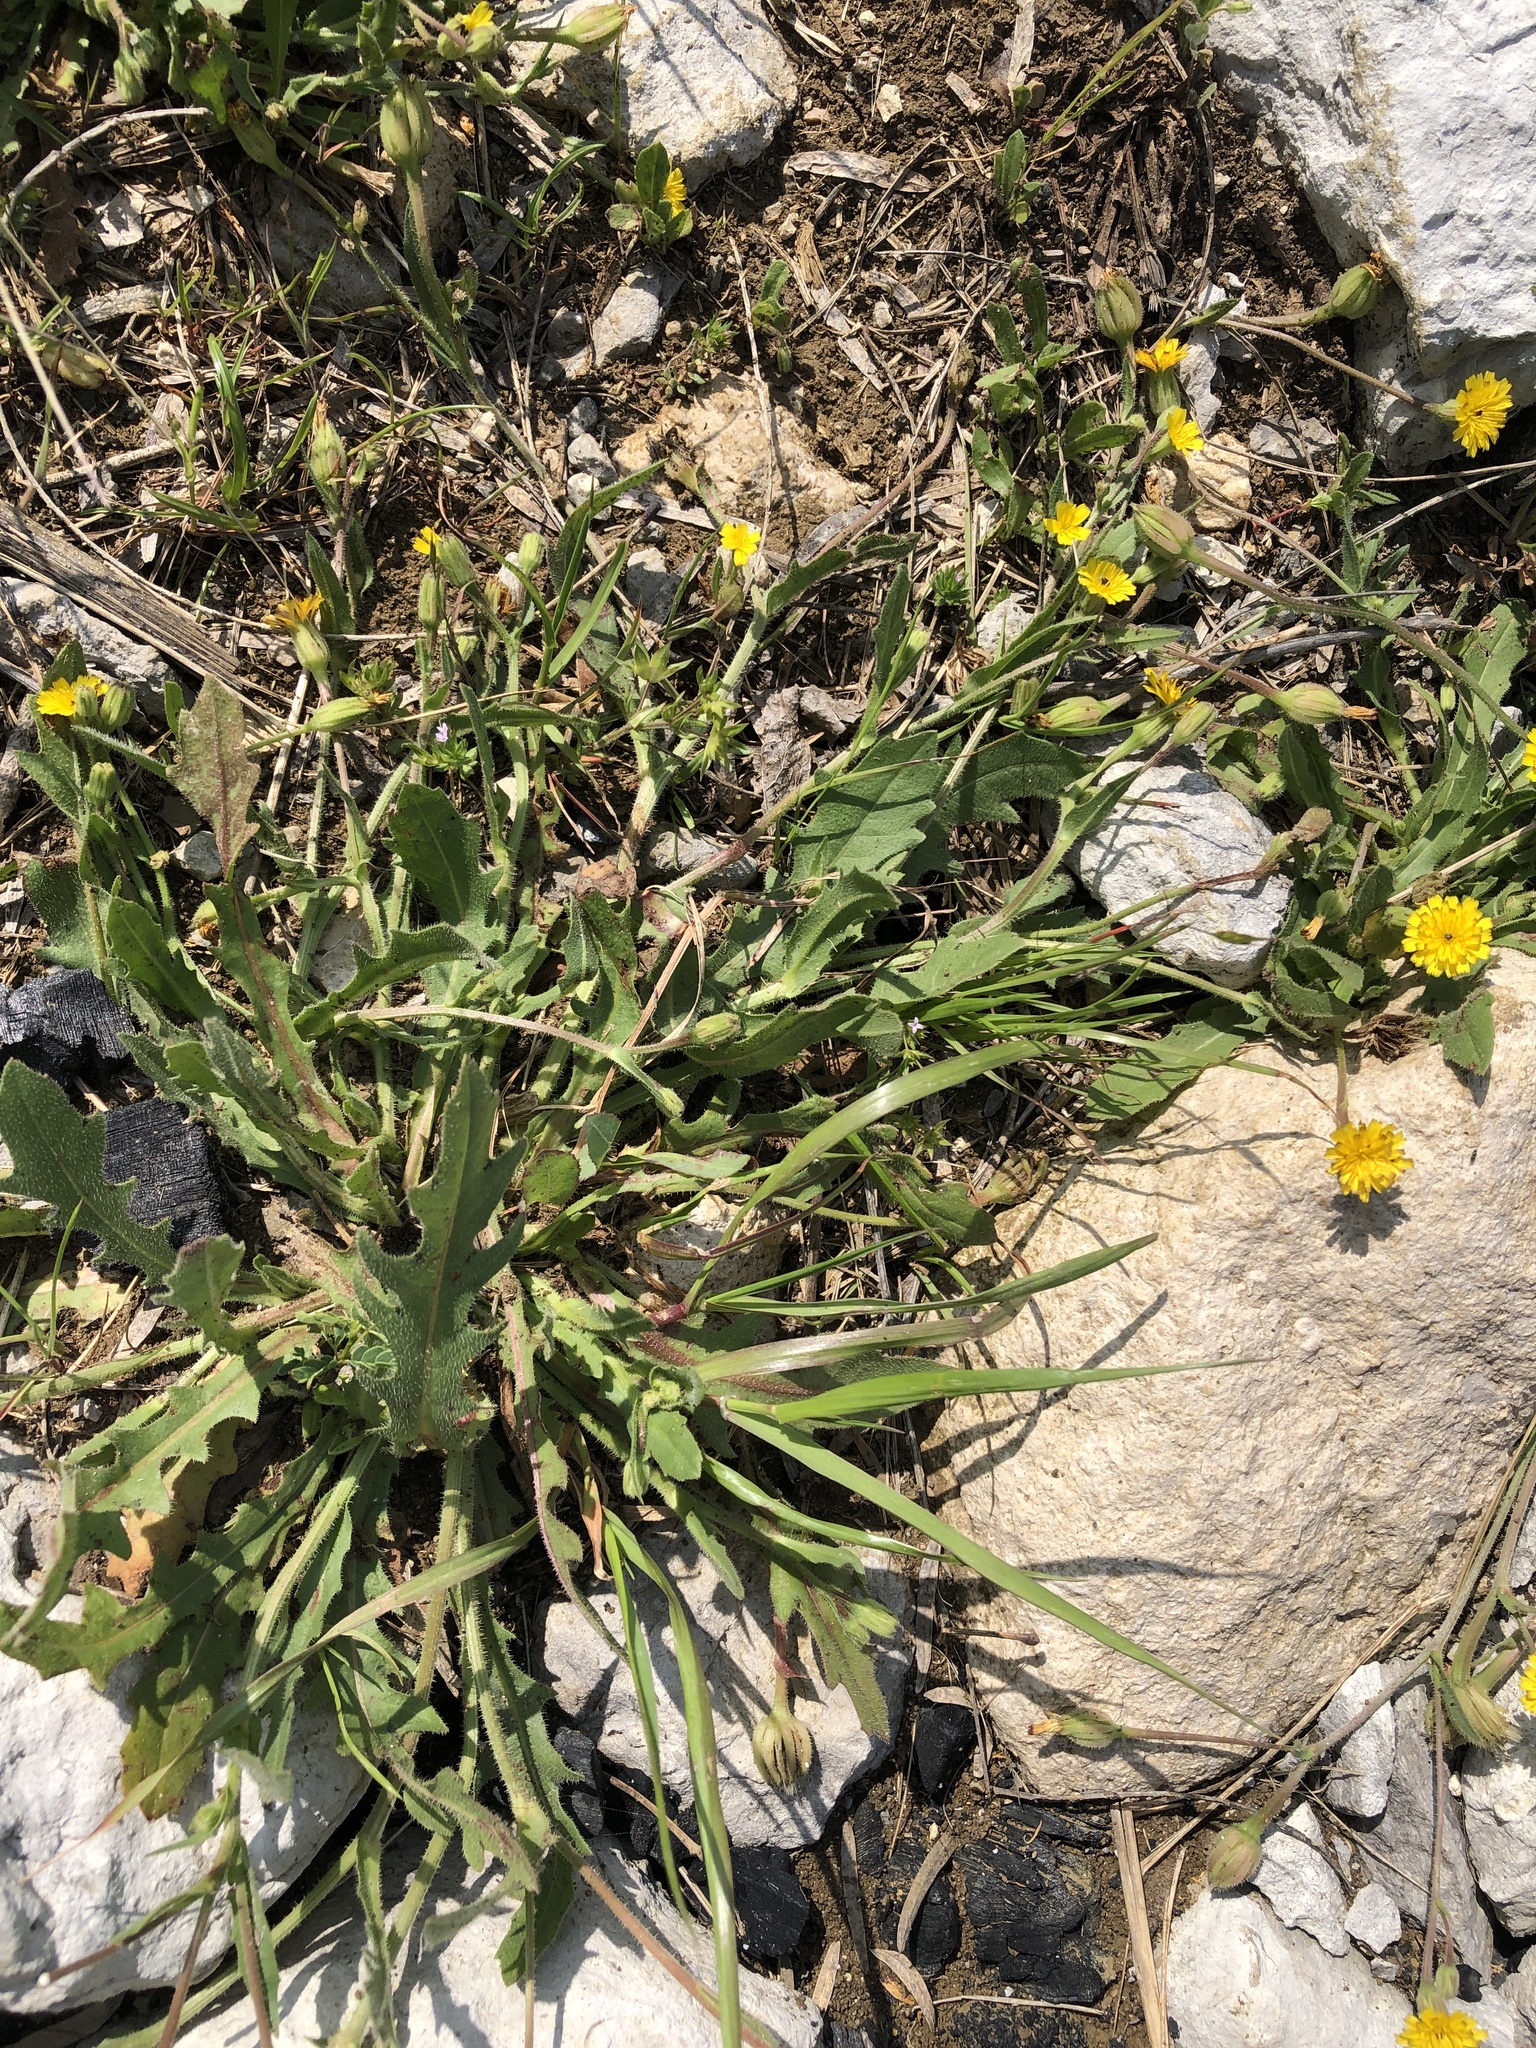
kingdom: Plantae
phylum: Tracheophyta
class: Magnoliopsida
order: Asterales
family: Asteraceae
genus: Hedypnois
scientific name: Hedypnois rhagadioloides
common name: Cretan weed
